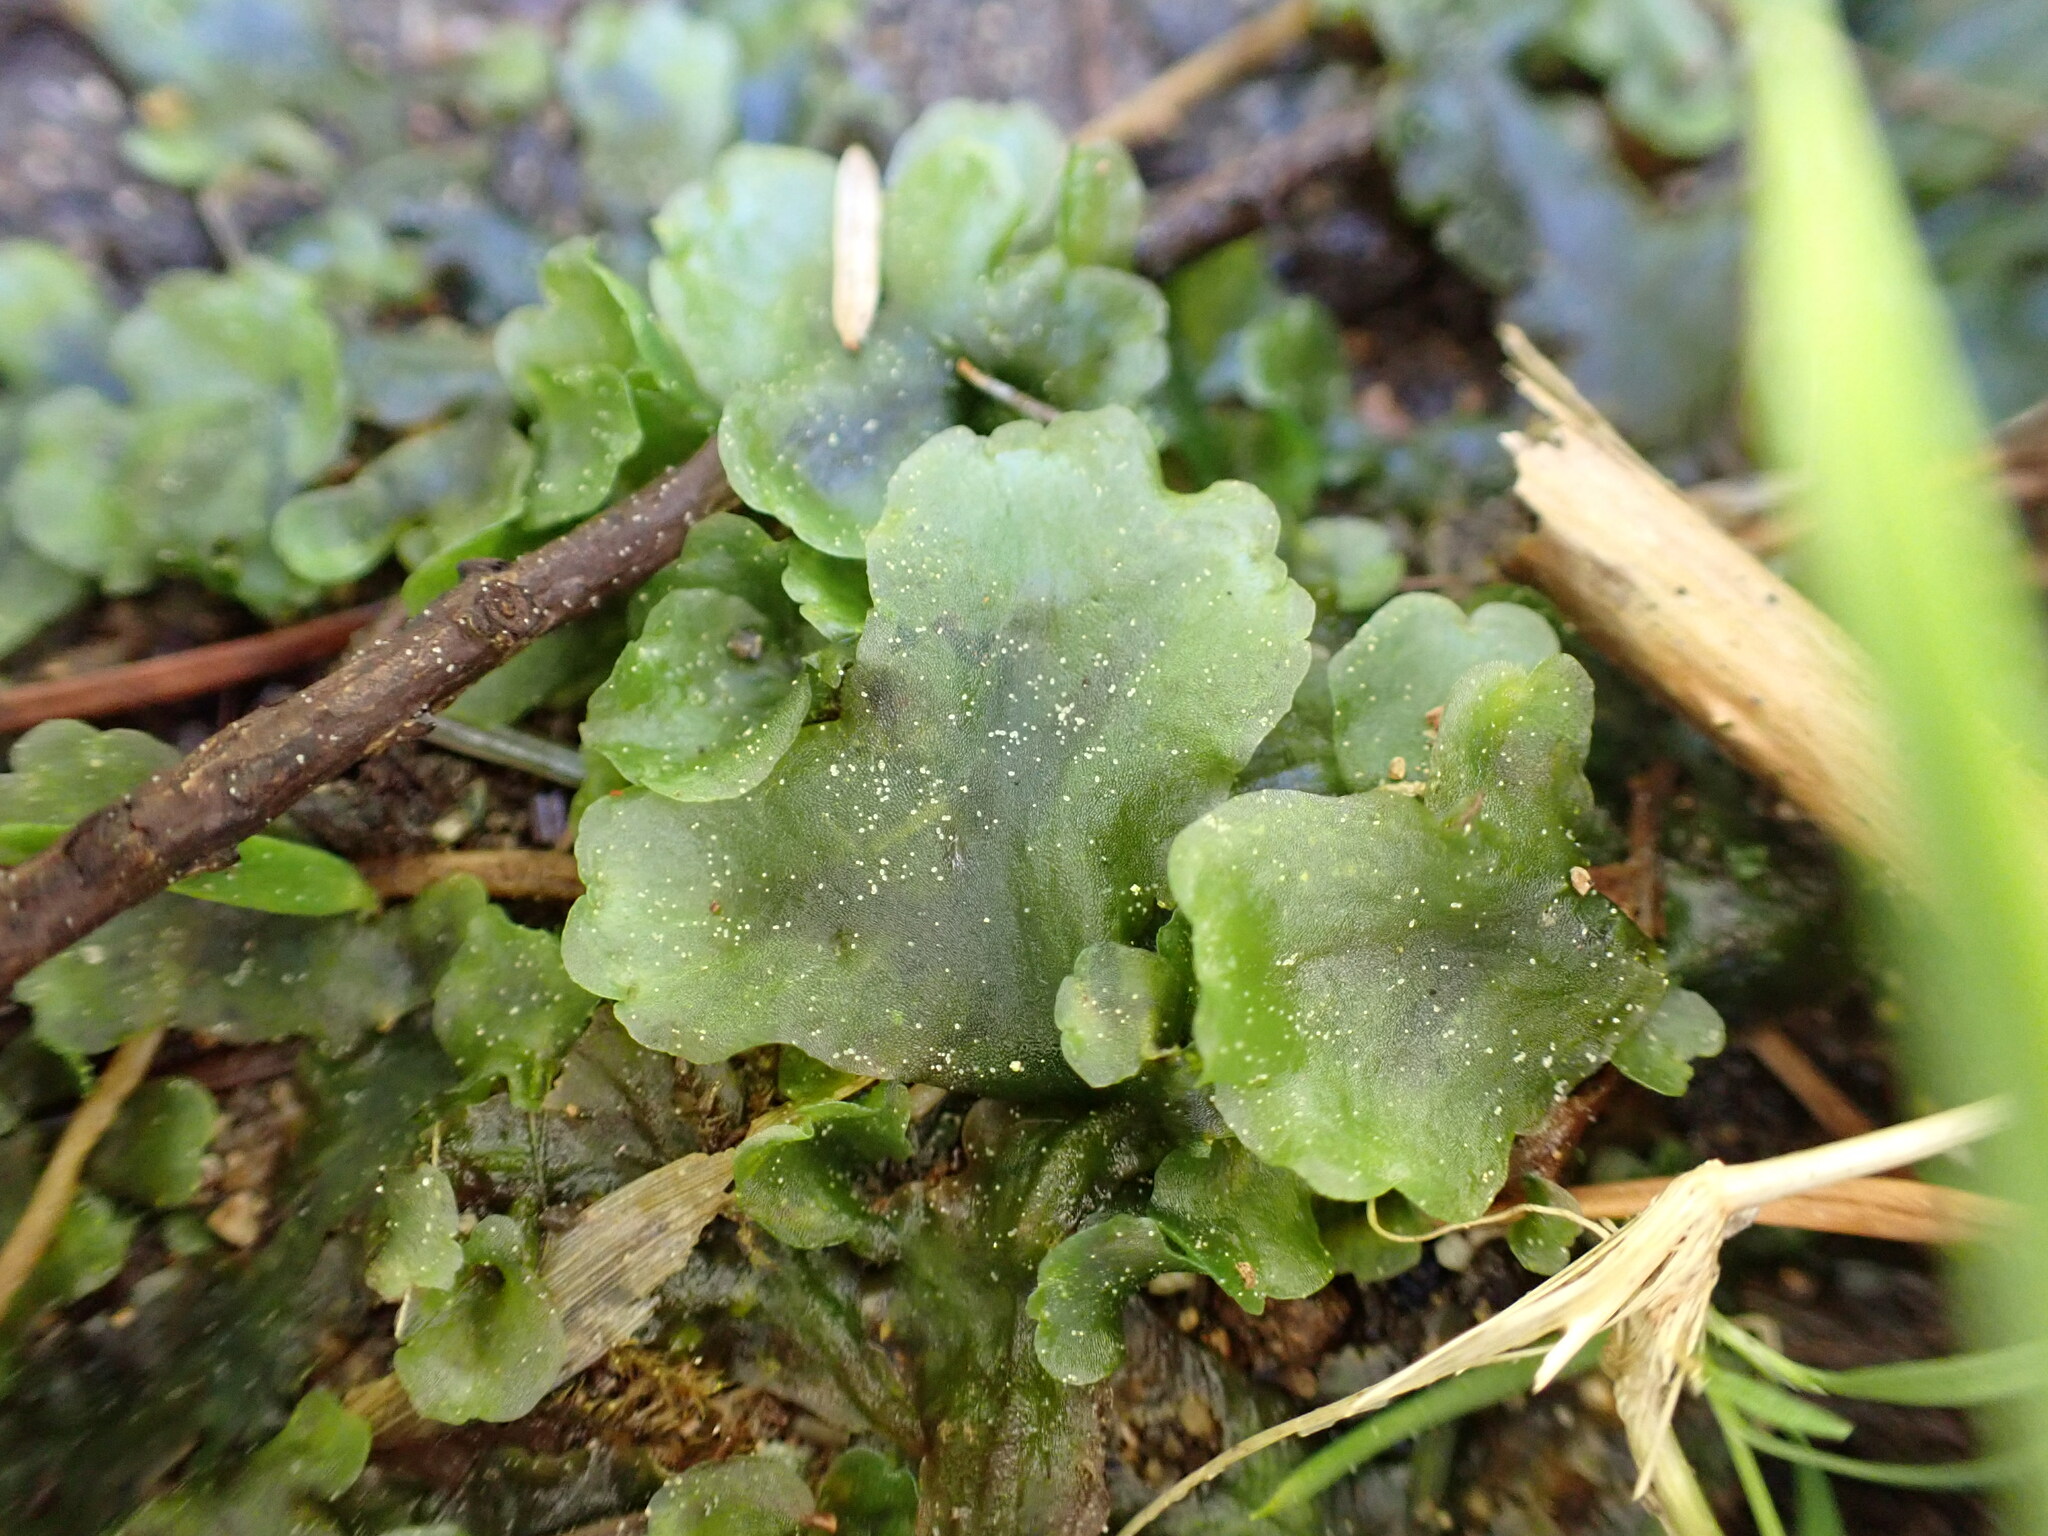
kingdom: Plantae
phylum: Marchantiophyta
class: Jungermanniopsida
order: Pelliales
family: Pelliaceae
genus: Pellia
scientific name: Pellia neesiana
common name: Nees  pellia
